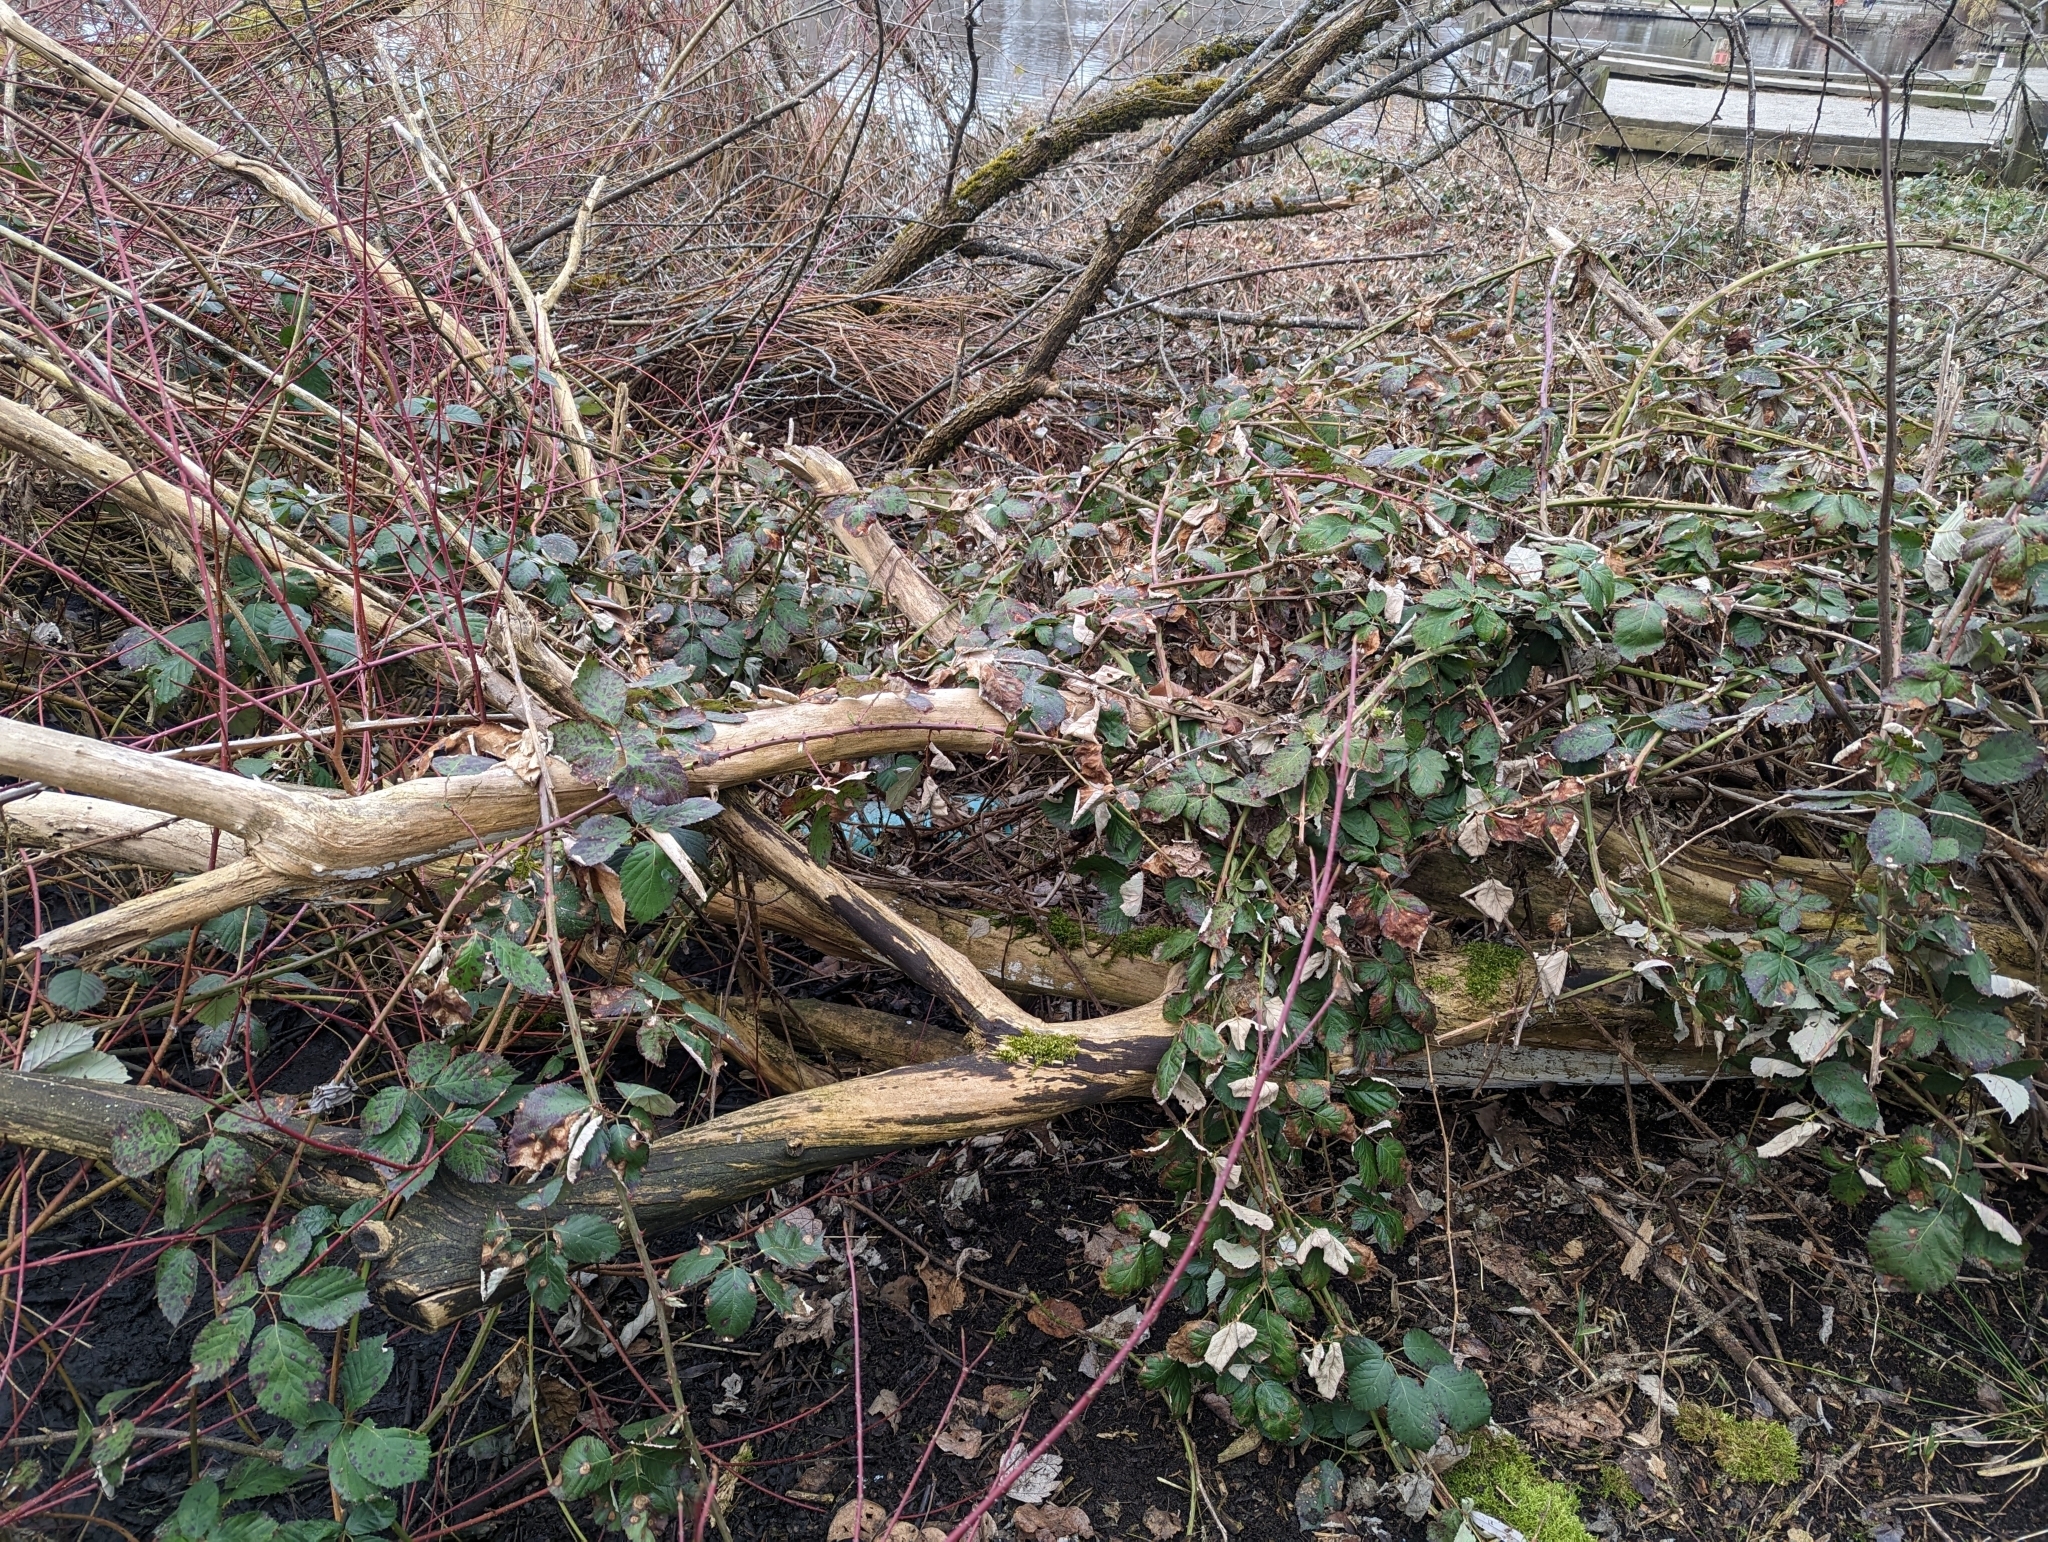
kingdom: Plantae
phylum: Tracheophyta
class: Magnoliopsida
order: Rosales
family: Rosaceae
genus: Rubus
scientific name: Rubus bifrons
